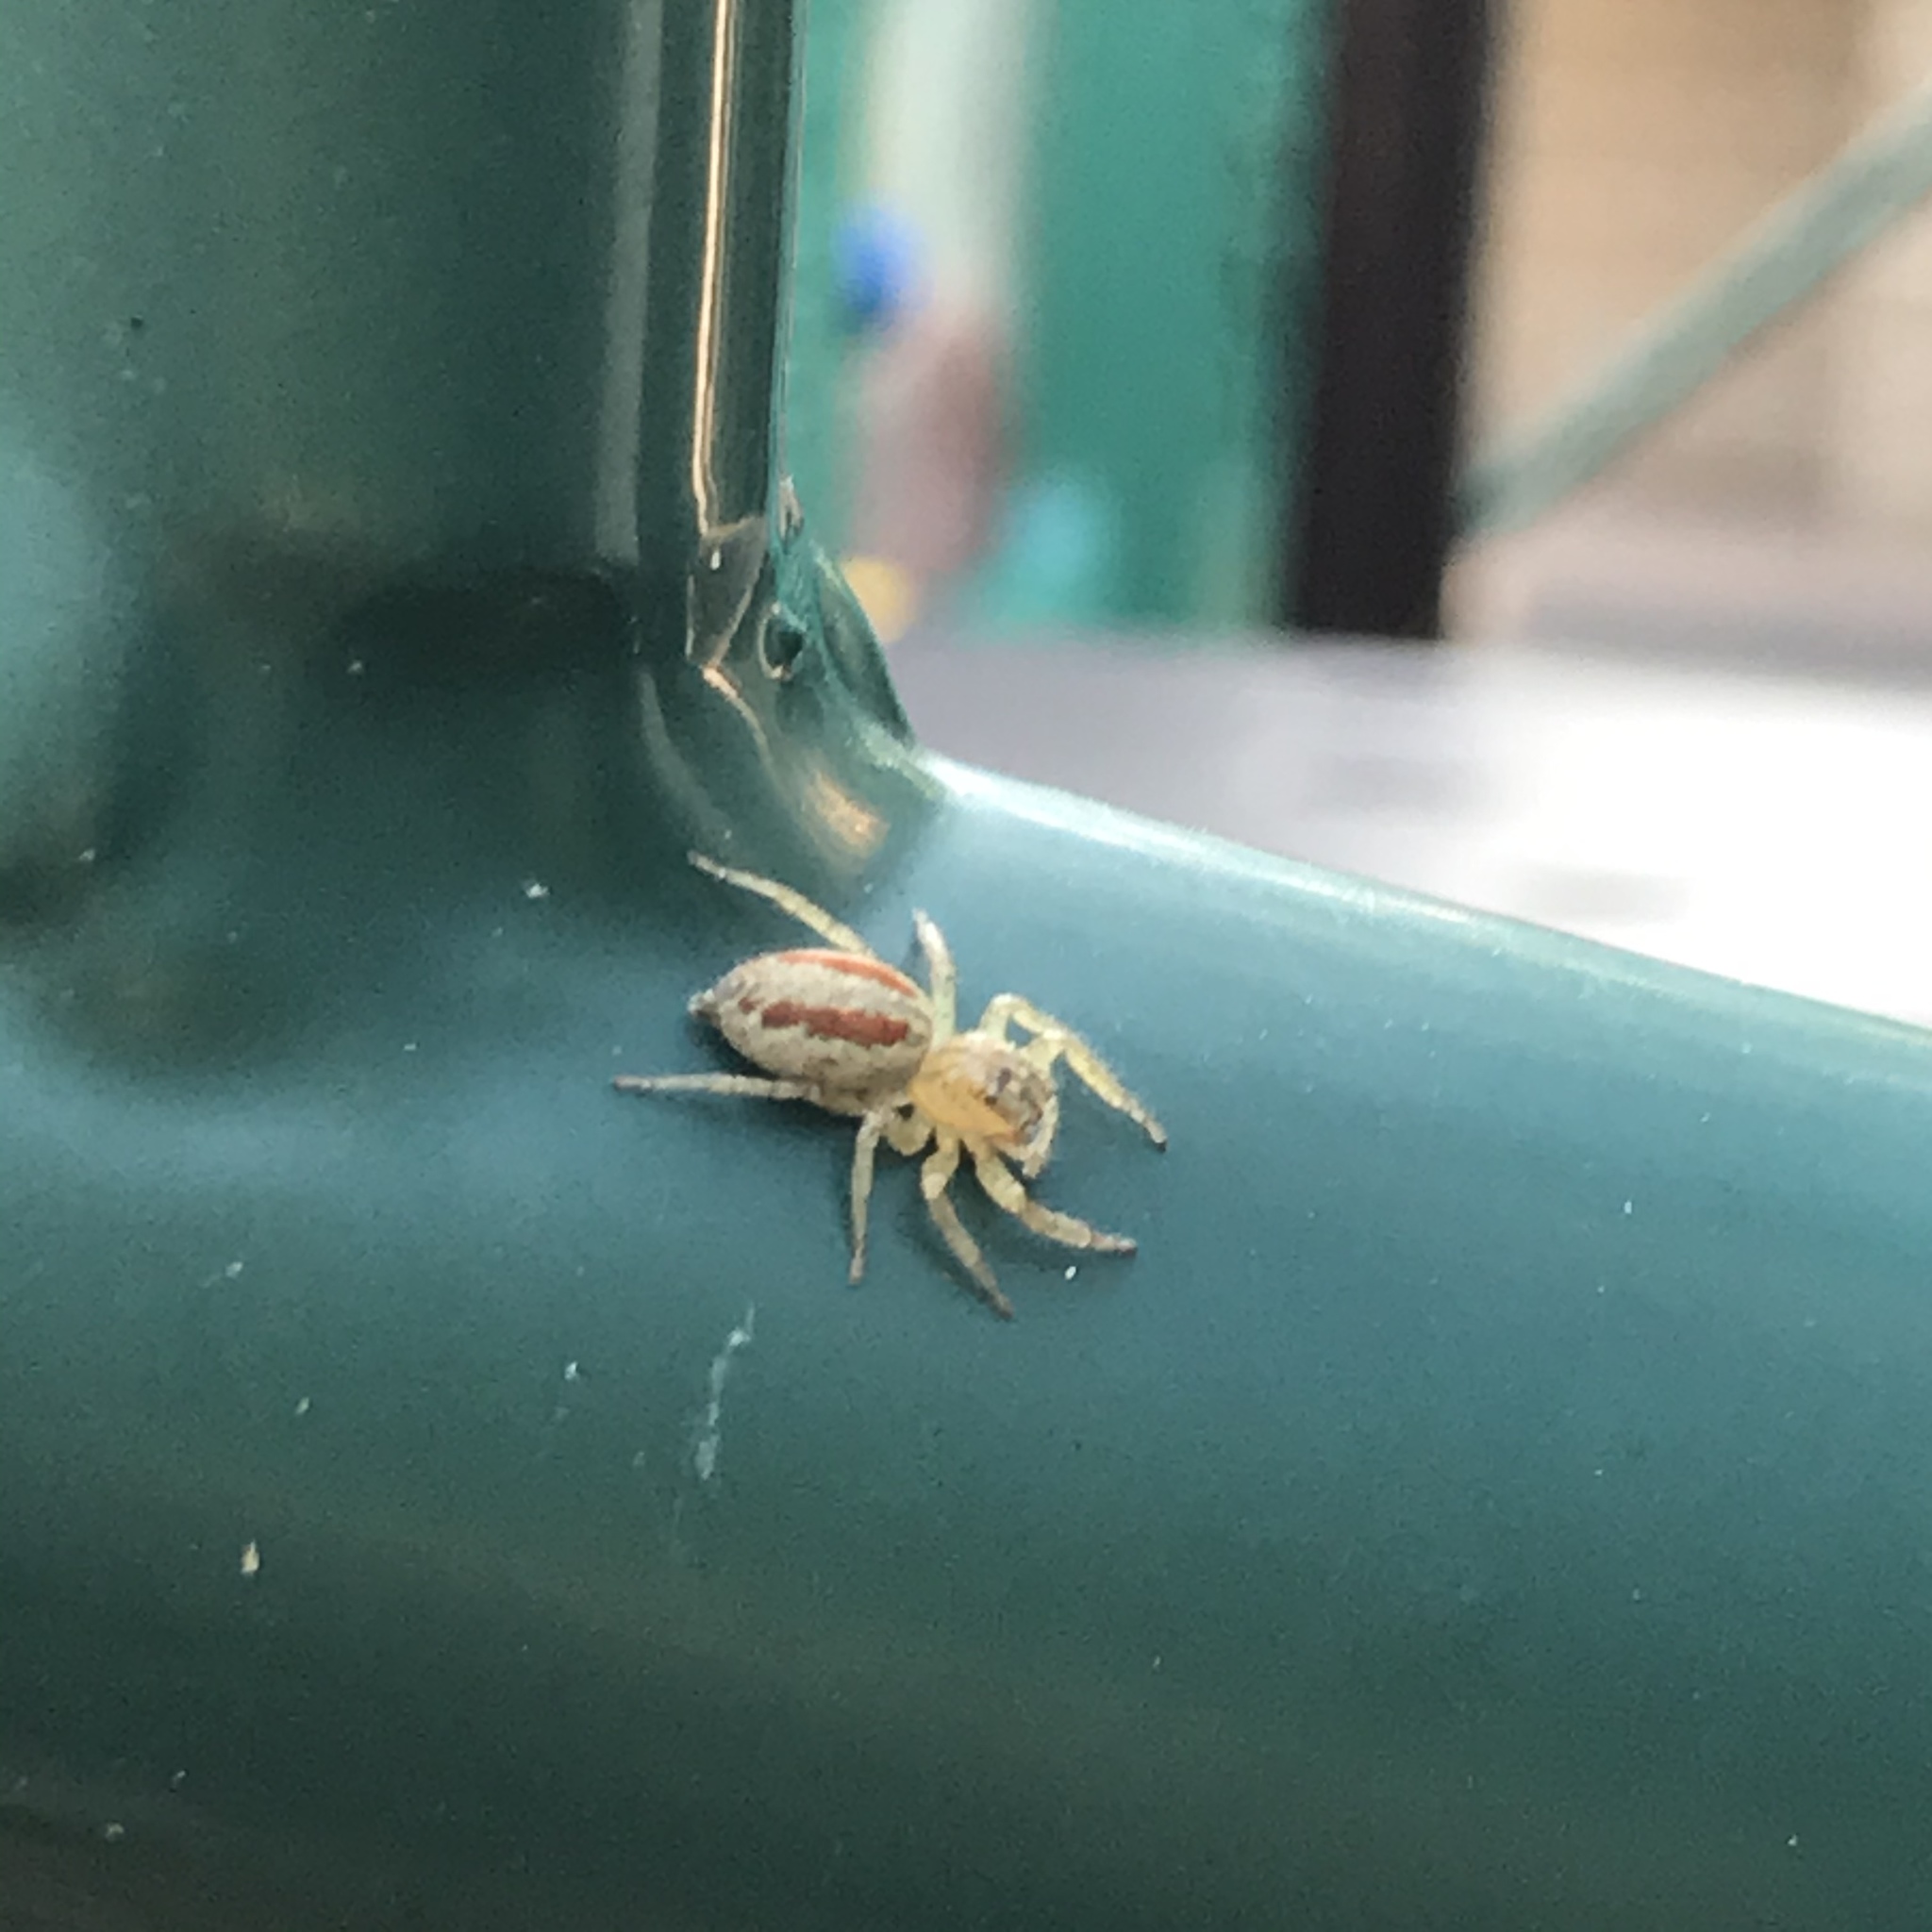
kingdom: Animalia
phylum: Arthropoda
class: Arachnida
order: Araneae
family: Salticidae
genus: Maevia
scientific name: Maevia inclemens
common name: Dimorphic jumper
